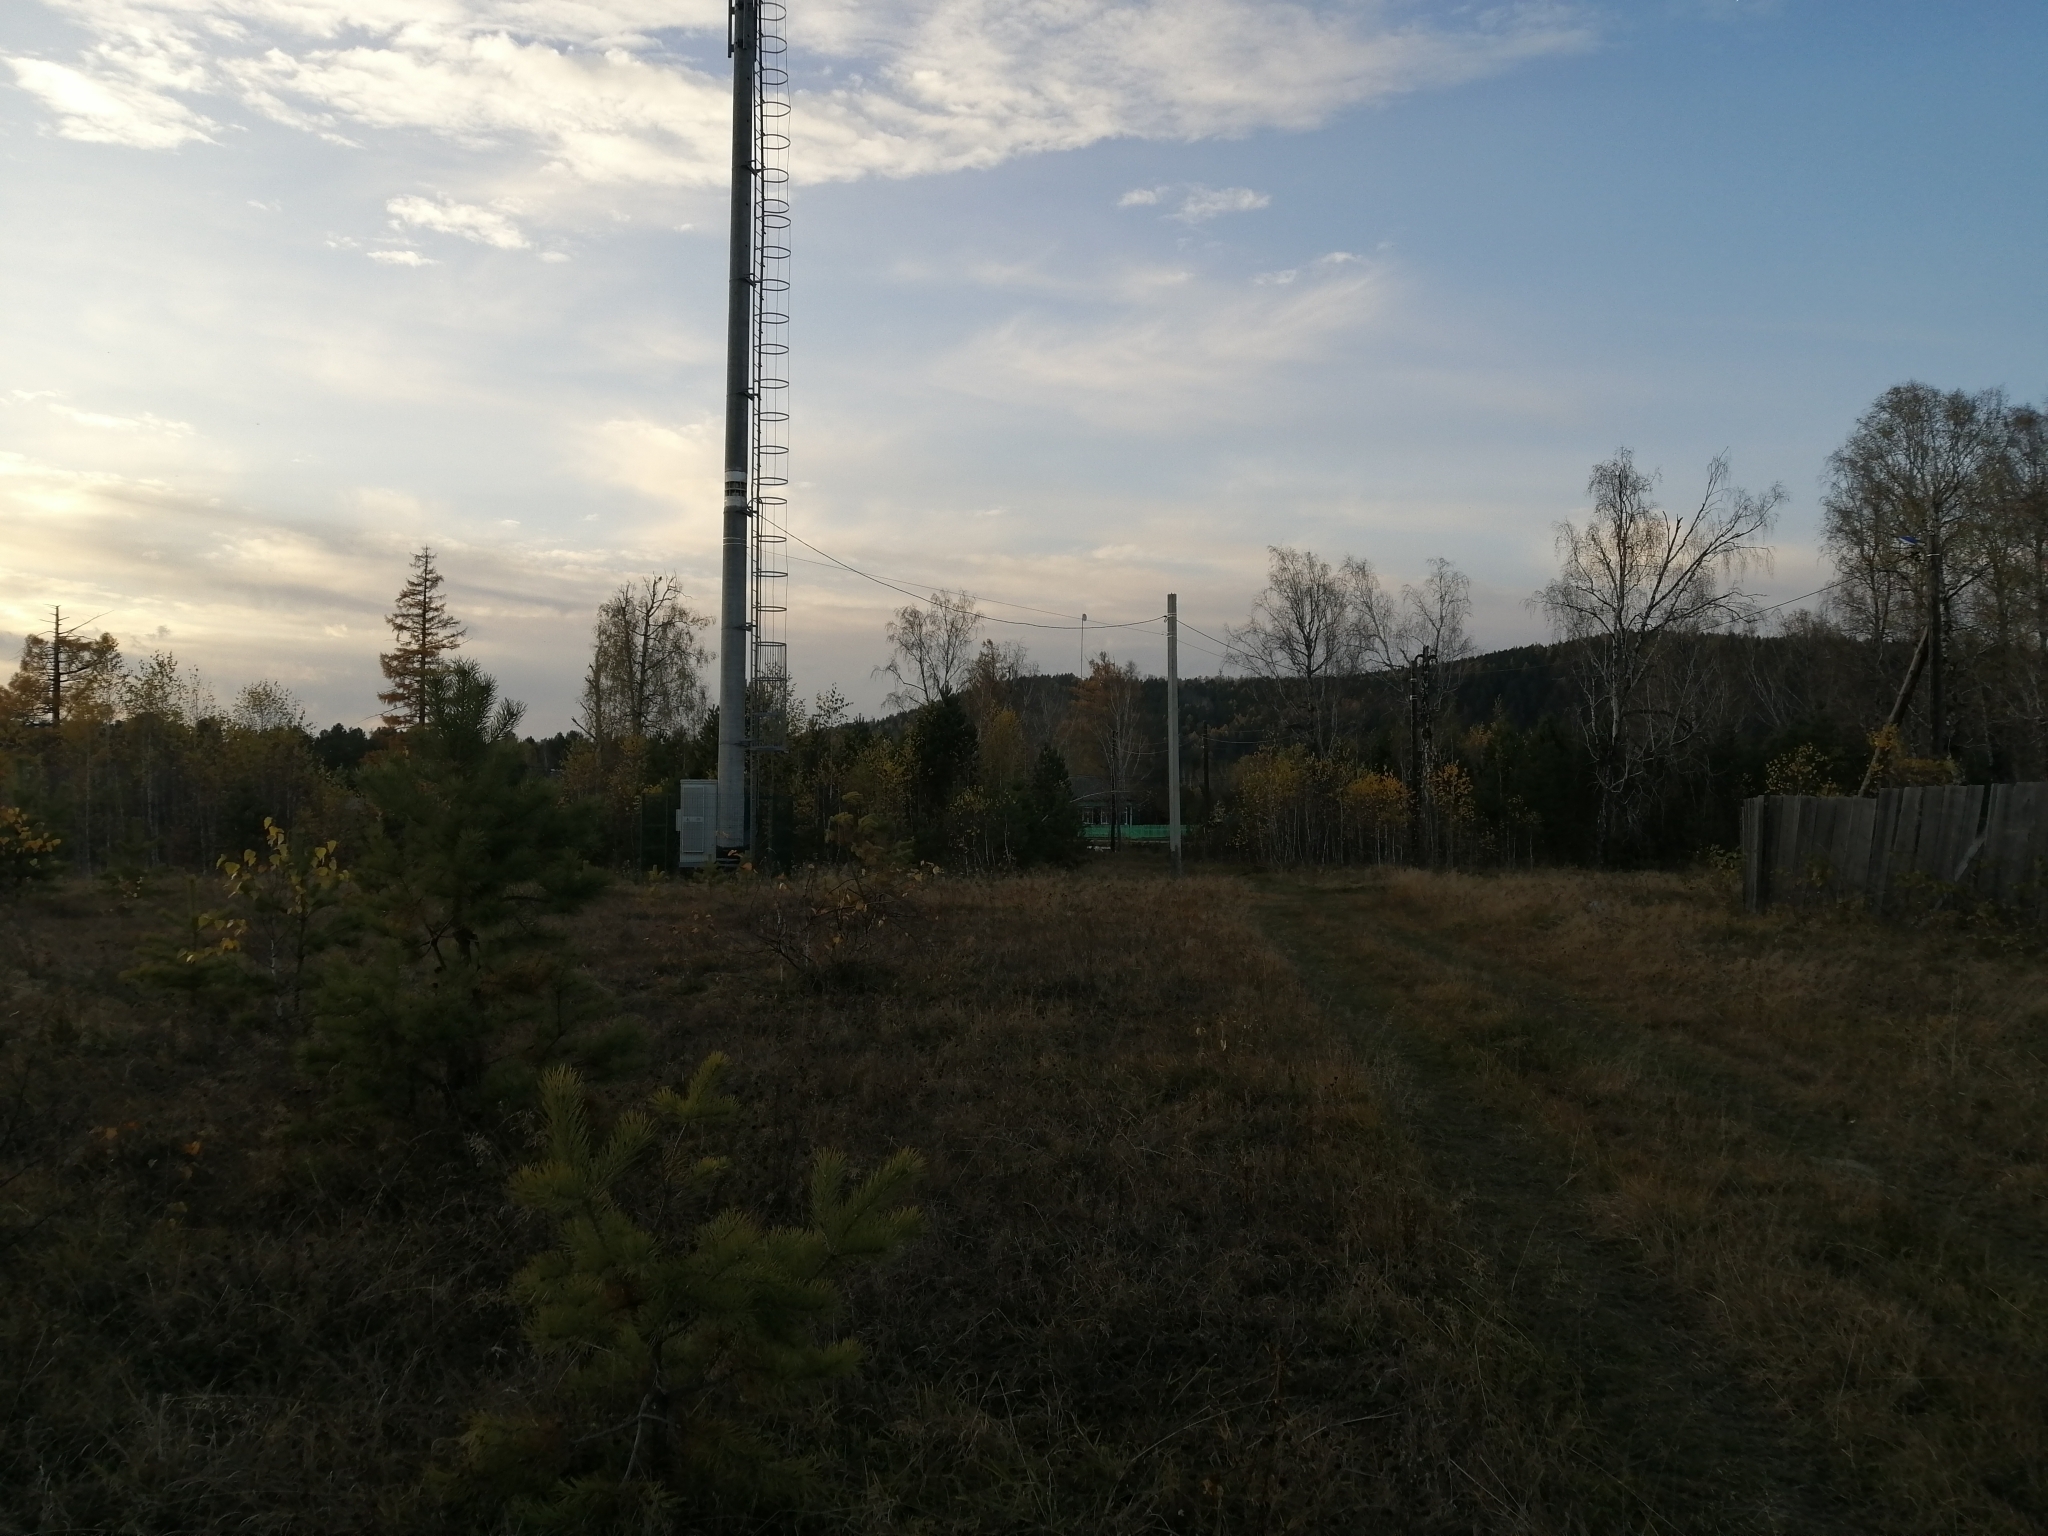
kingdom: Plantae
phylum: Tracheophyta
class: Pinopsida
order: Pinales
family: Pinaceae
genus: Pinus
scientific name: Pinus sylvestris
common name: Scots pine
